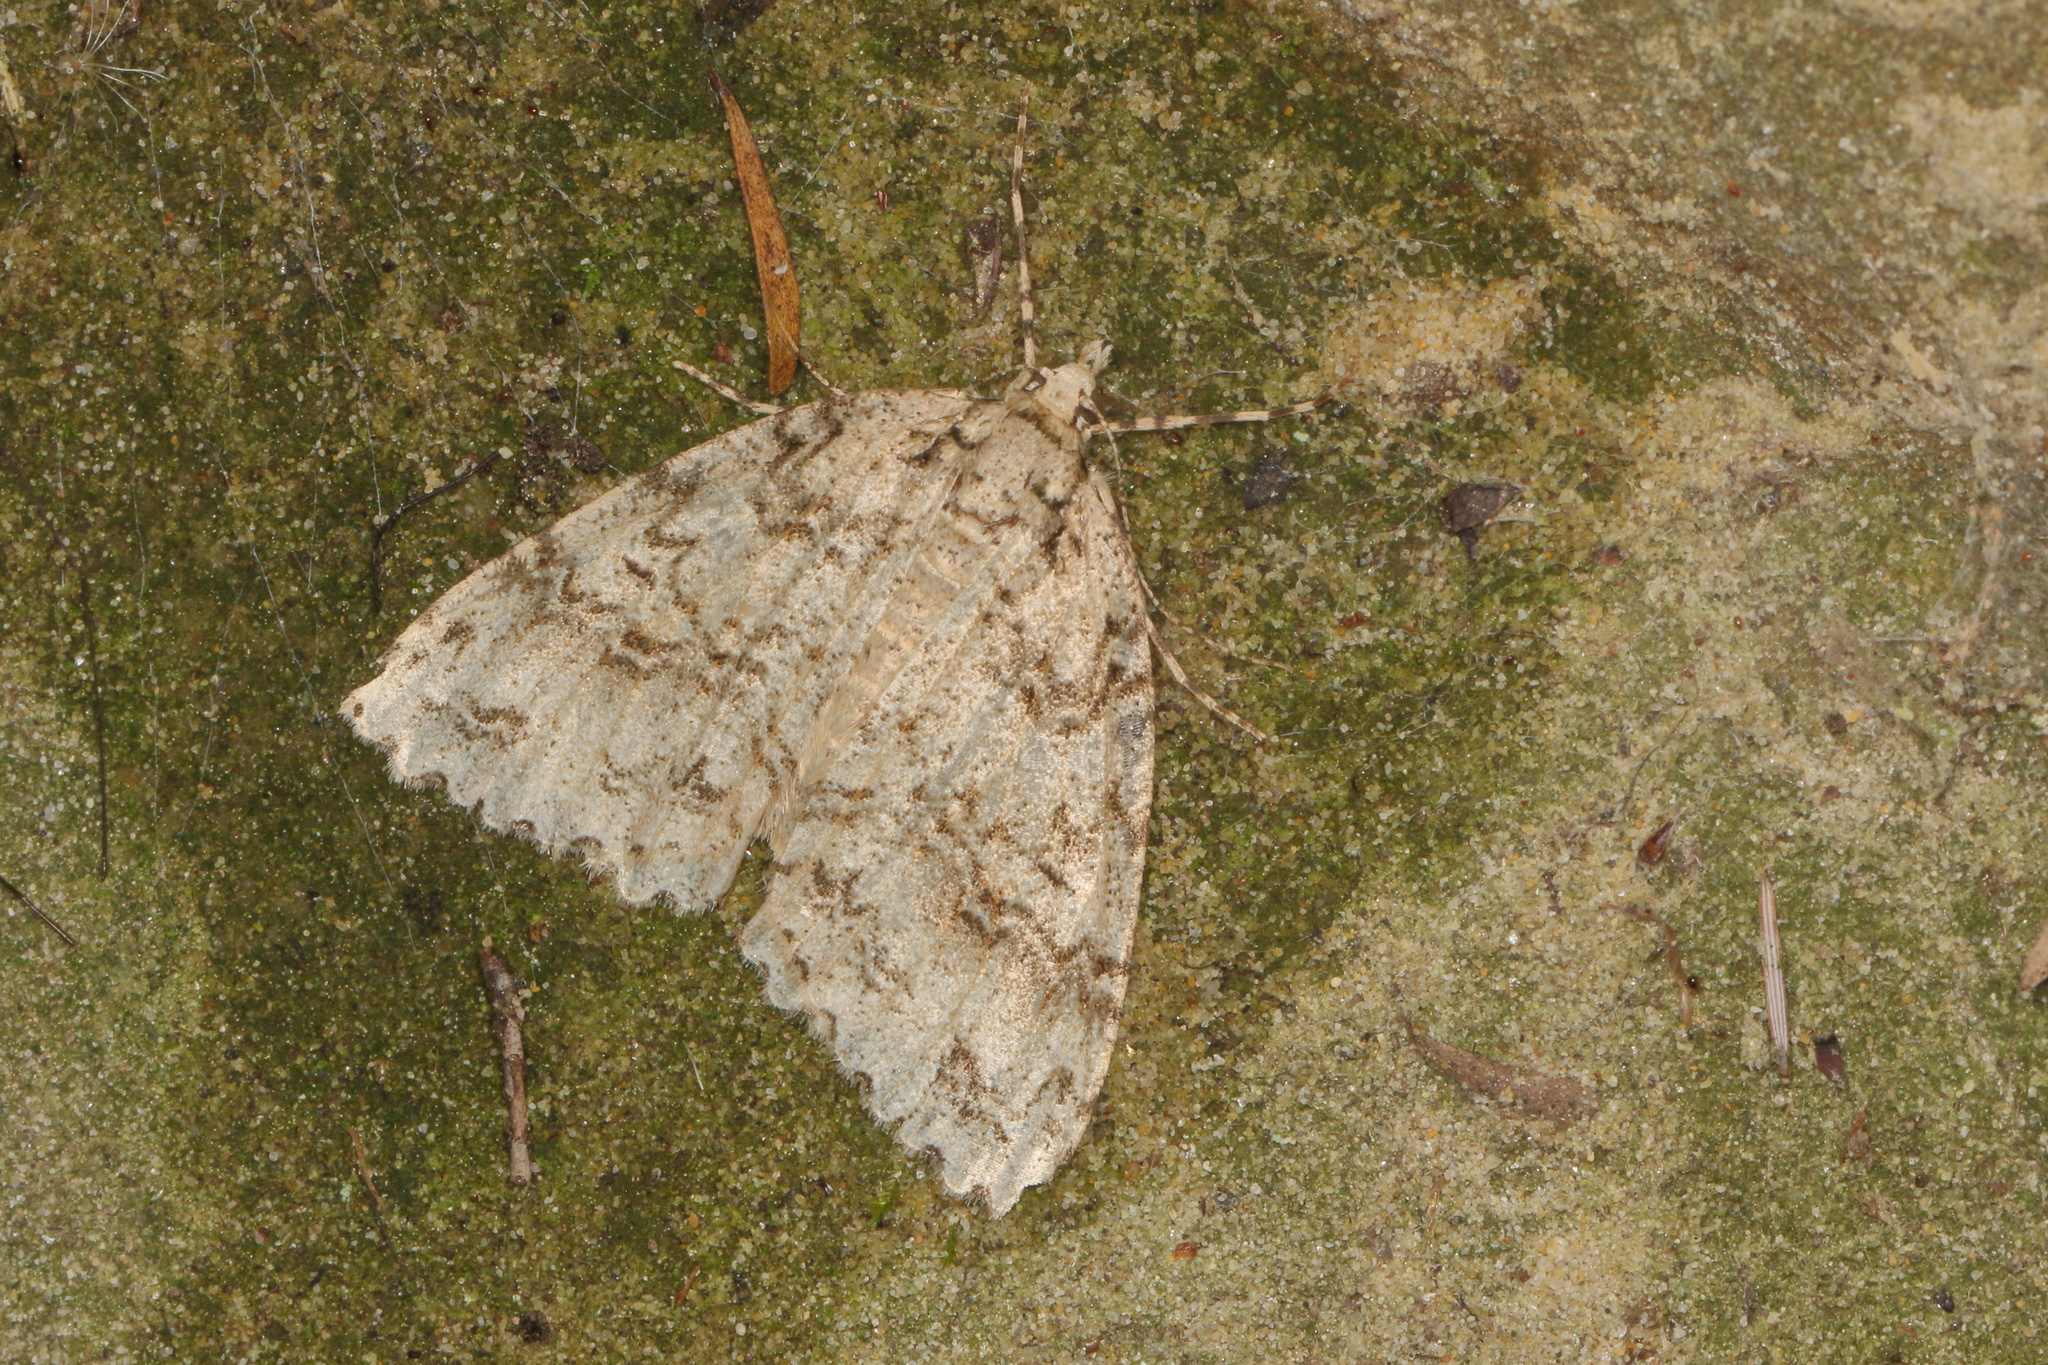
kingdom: Animalia
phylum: Arthropoda
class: Insecta
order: Lepidoptera
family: Geometridae
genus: Pseudocoremia
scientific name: Pseudocoremia rudisata
